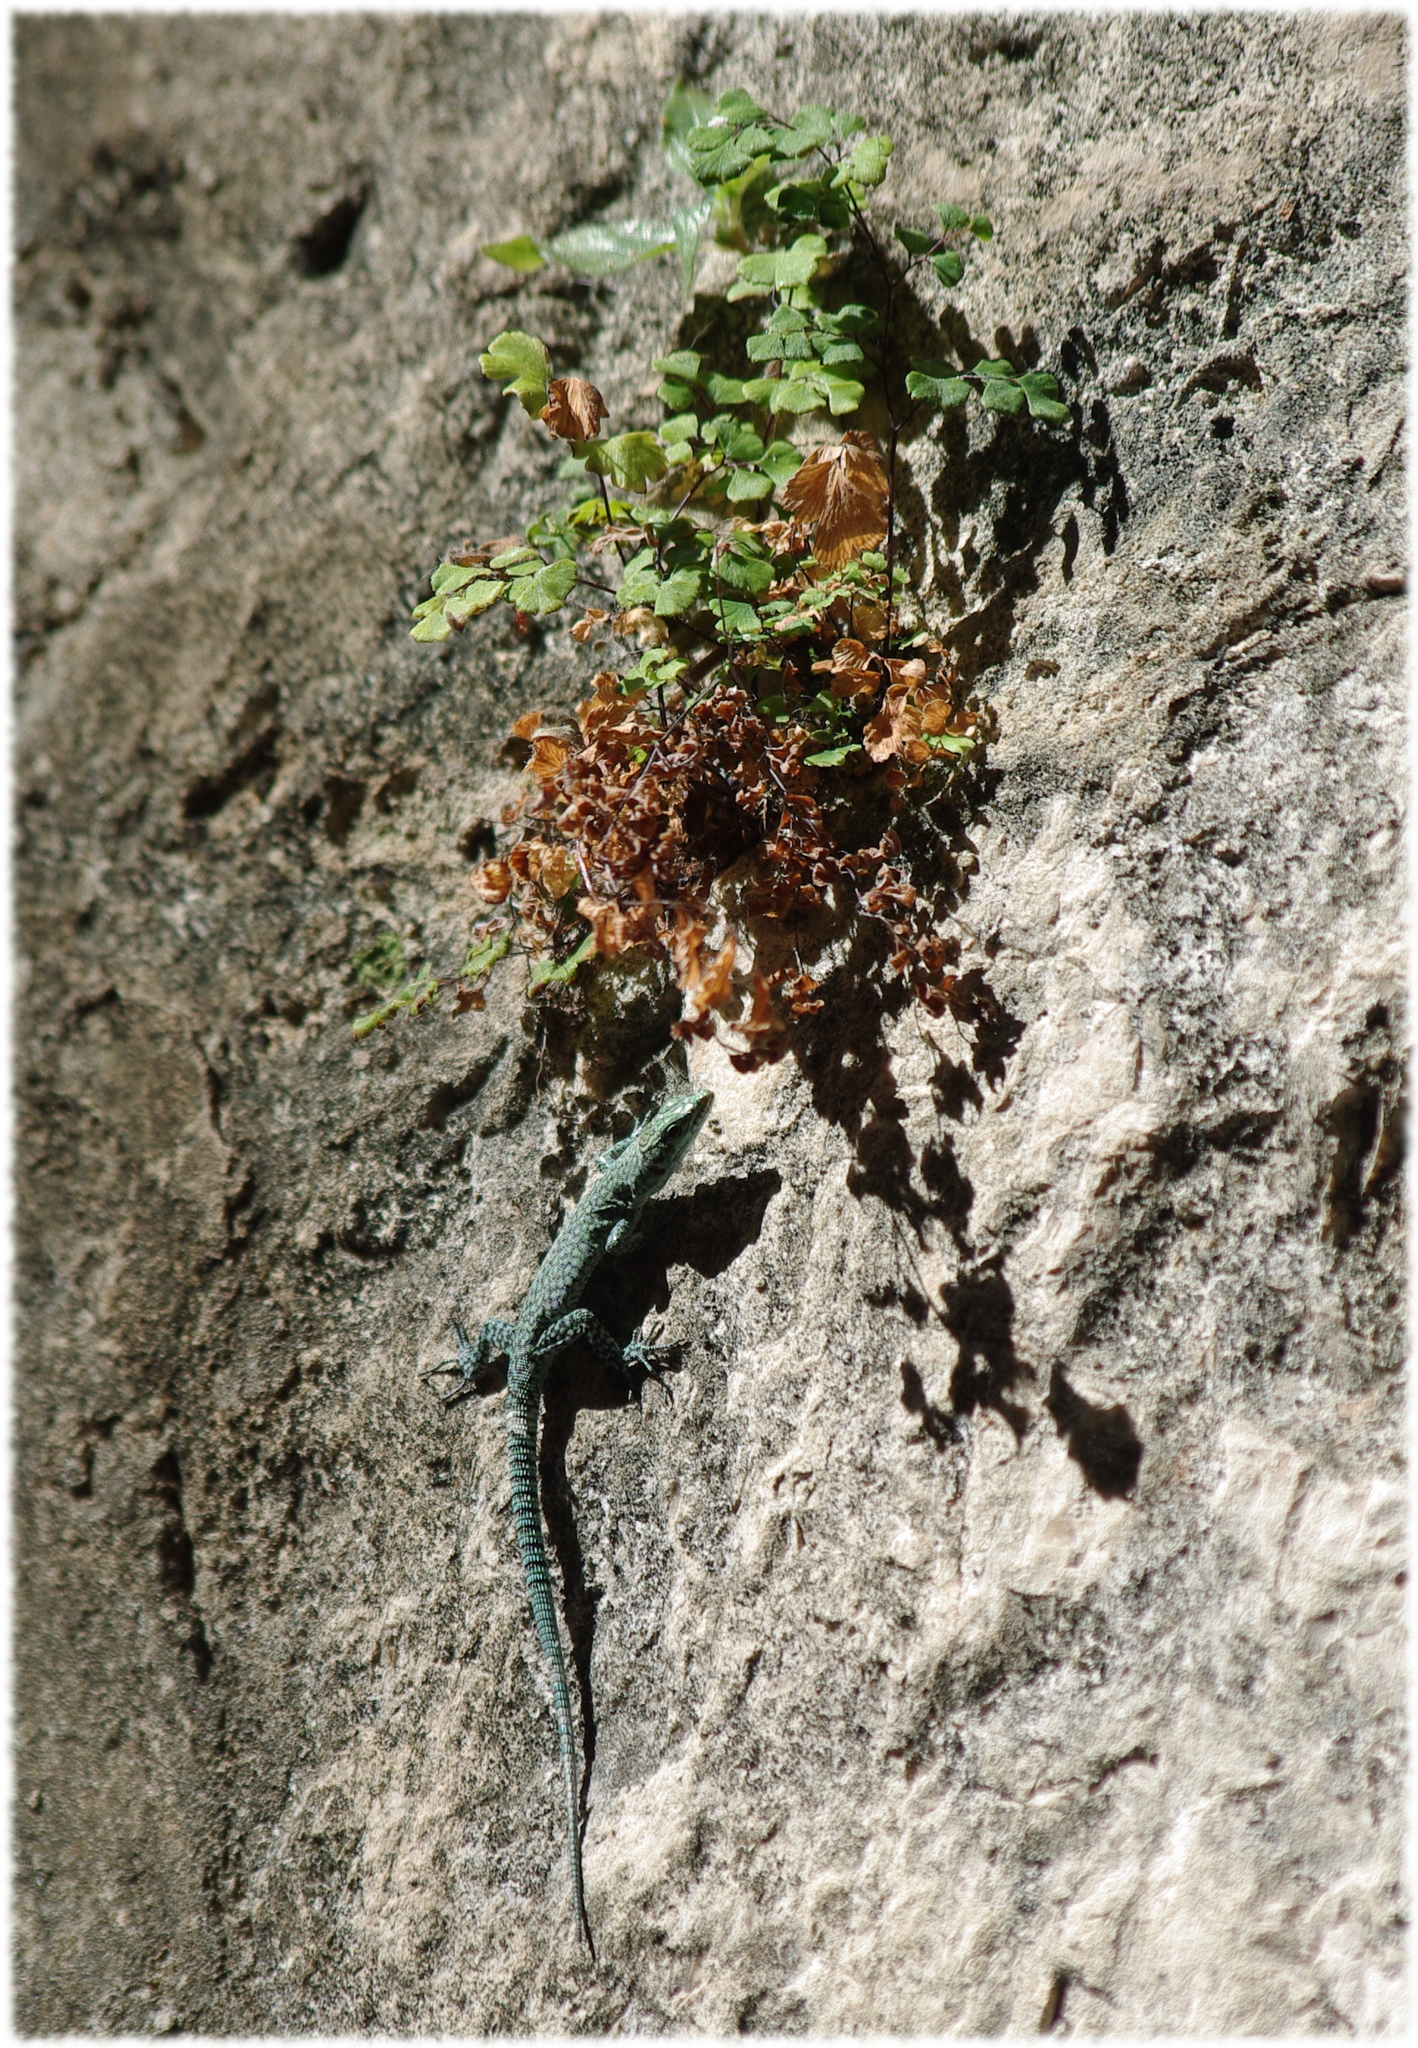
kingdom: Animalia
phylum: Chordata
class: Squamata
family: Lacertidae
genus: Dalmatolacerta
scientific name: Dalmatolacerta oxycephala
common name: Sharp-snouted rock lizard
